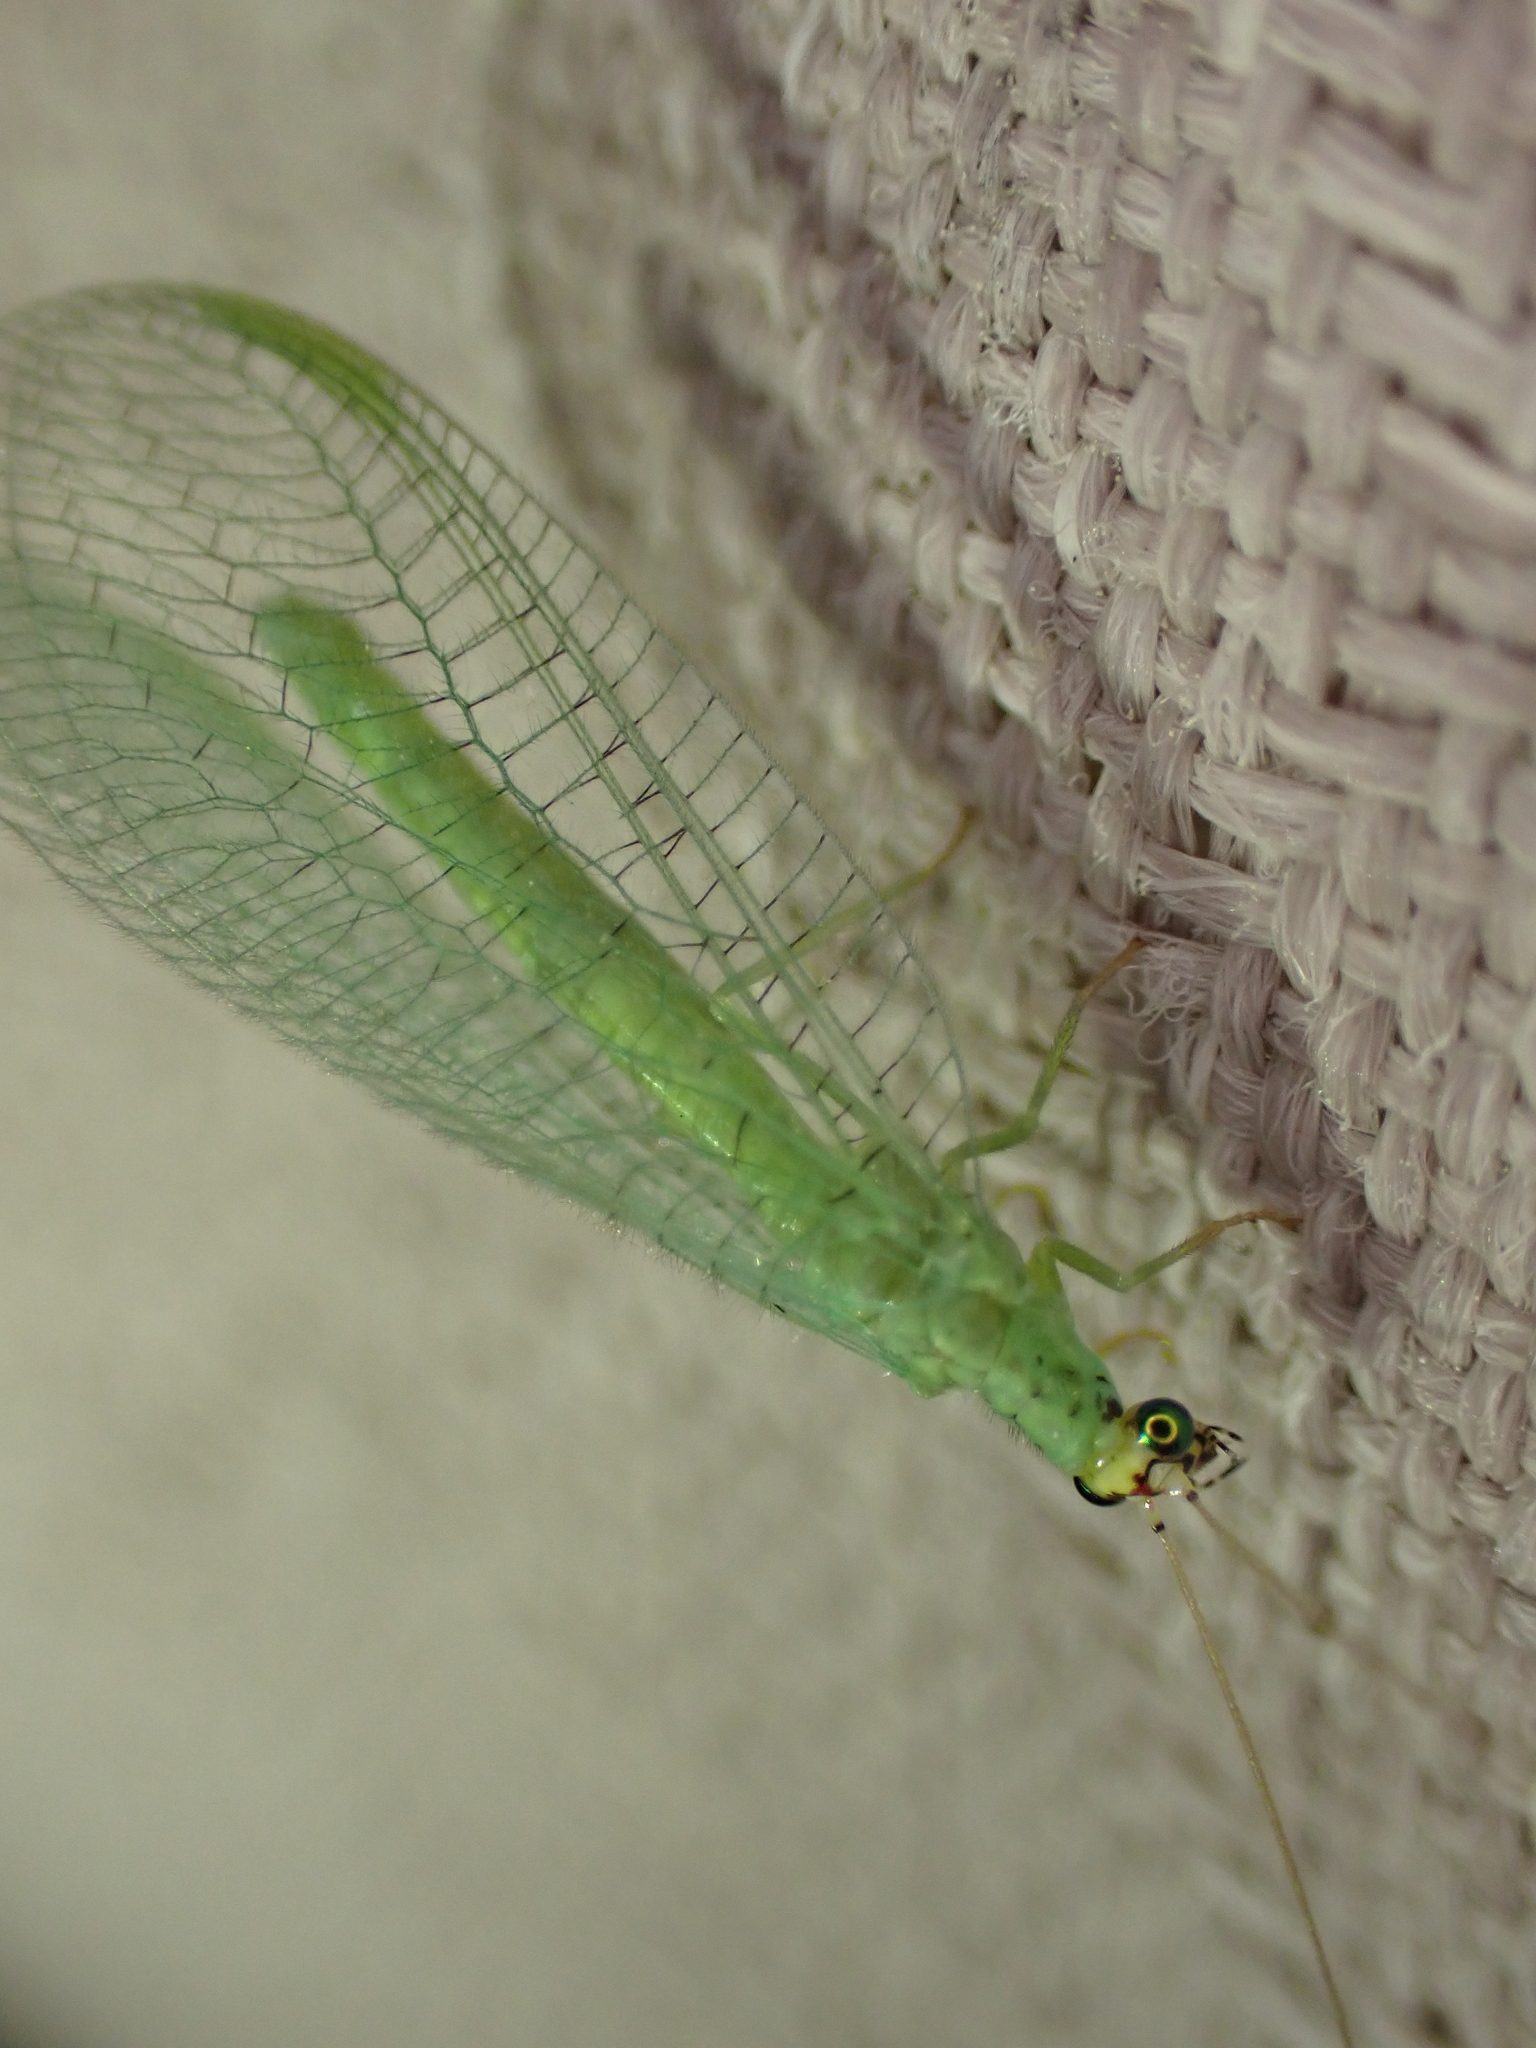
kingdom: Animalia
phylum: Arthropoda
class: Insecta
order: Neuroptera
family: Chrysopidae
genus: Chrysopa
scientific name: Chrysopa oculata
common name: Golden-eyed lacewing
